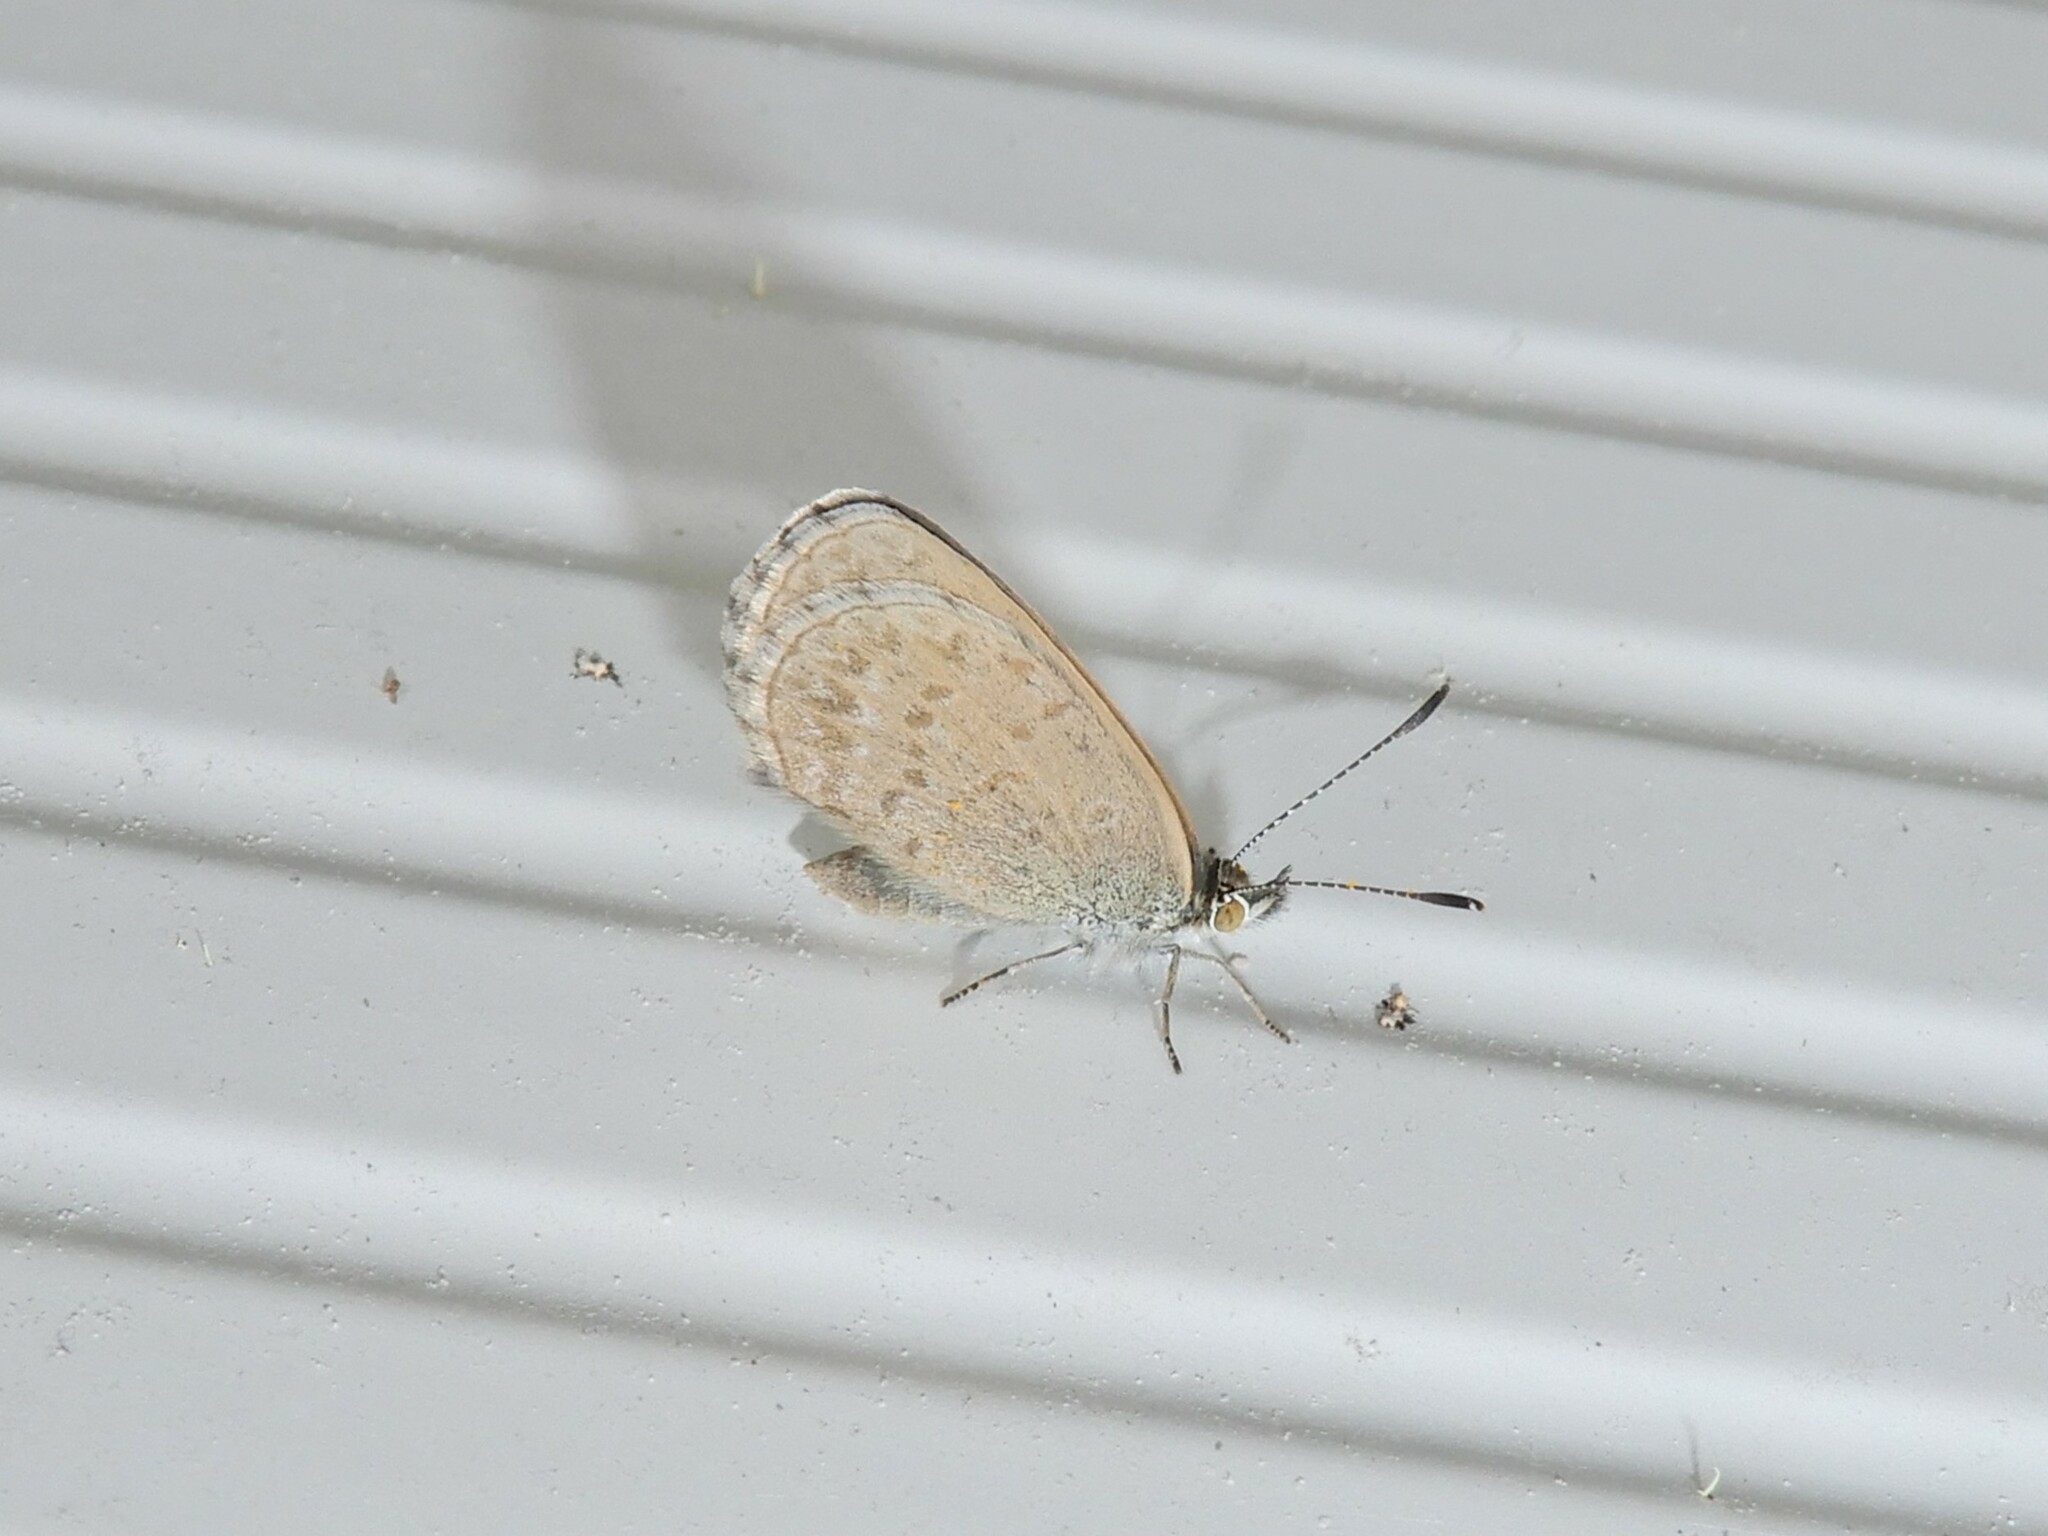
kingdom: Animalia
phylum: Arthropoda
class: Insecta
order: Lepidoptera
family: Lycaenidae
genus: Zizina
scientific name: Zizina otis
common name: Lesser grass blue
